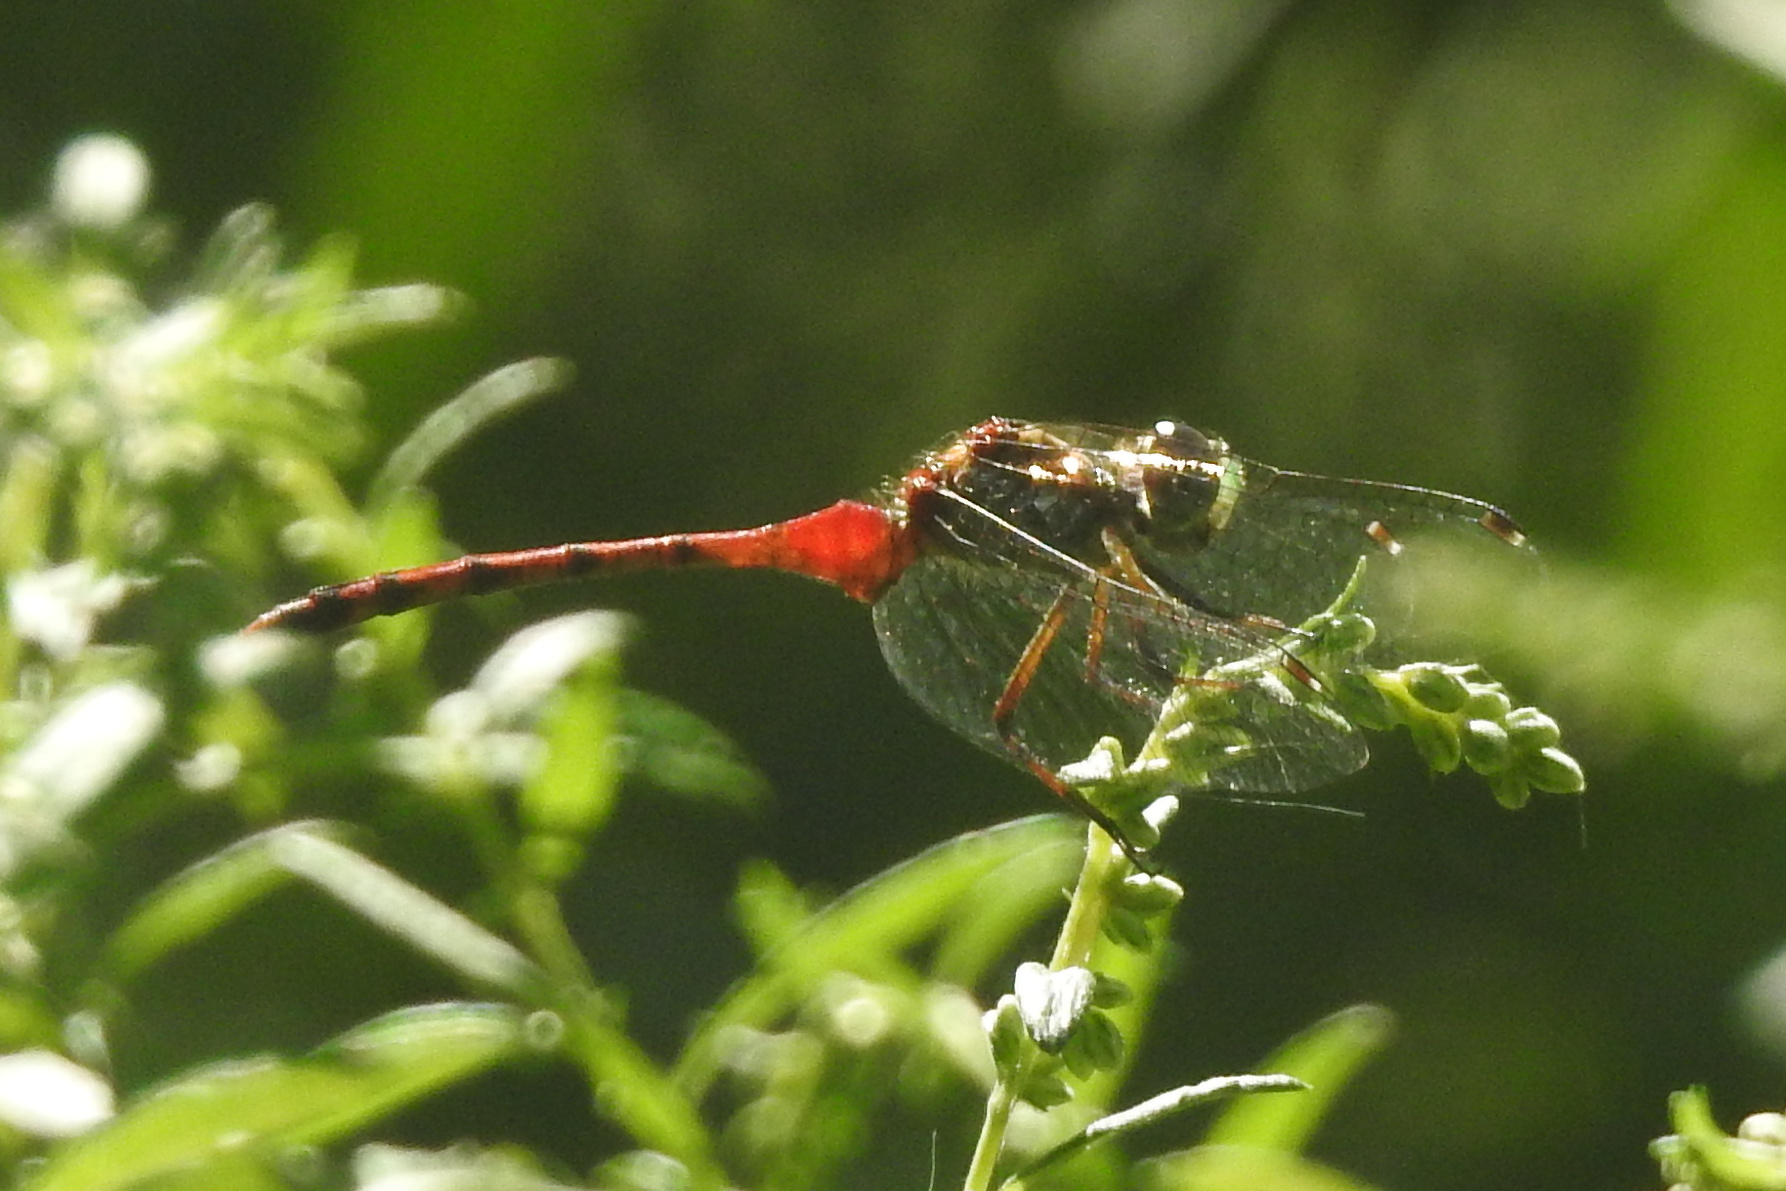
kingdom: Animalia
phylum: Arthropoda
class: Insecta
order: Odonata
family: Libellulidae
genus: Sympetrum
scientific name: Sympetrum ambiguum
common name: Blue-faced meadowhawk
